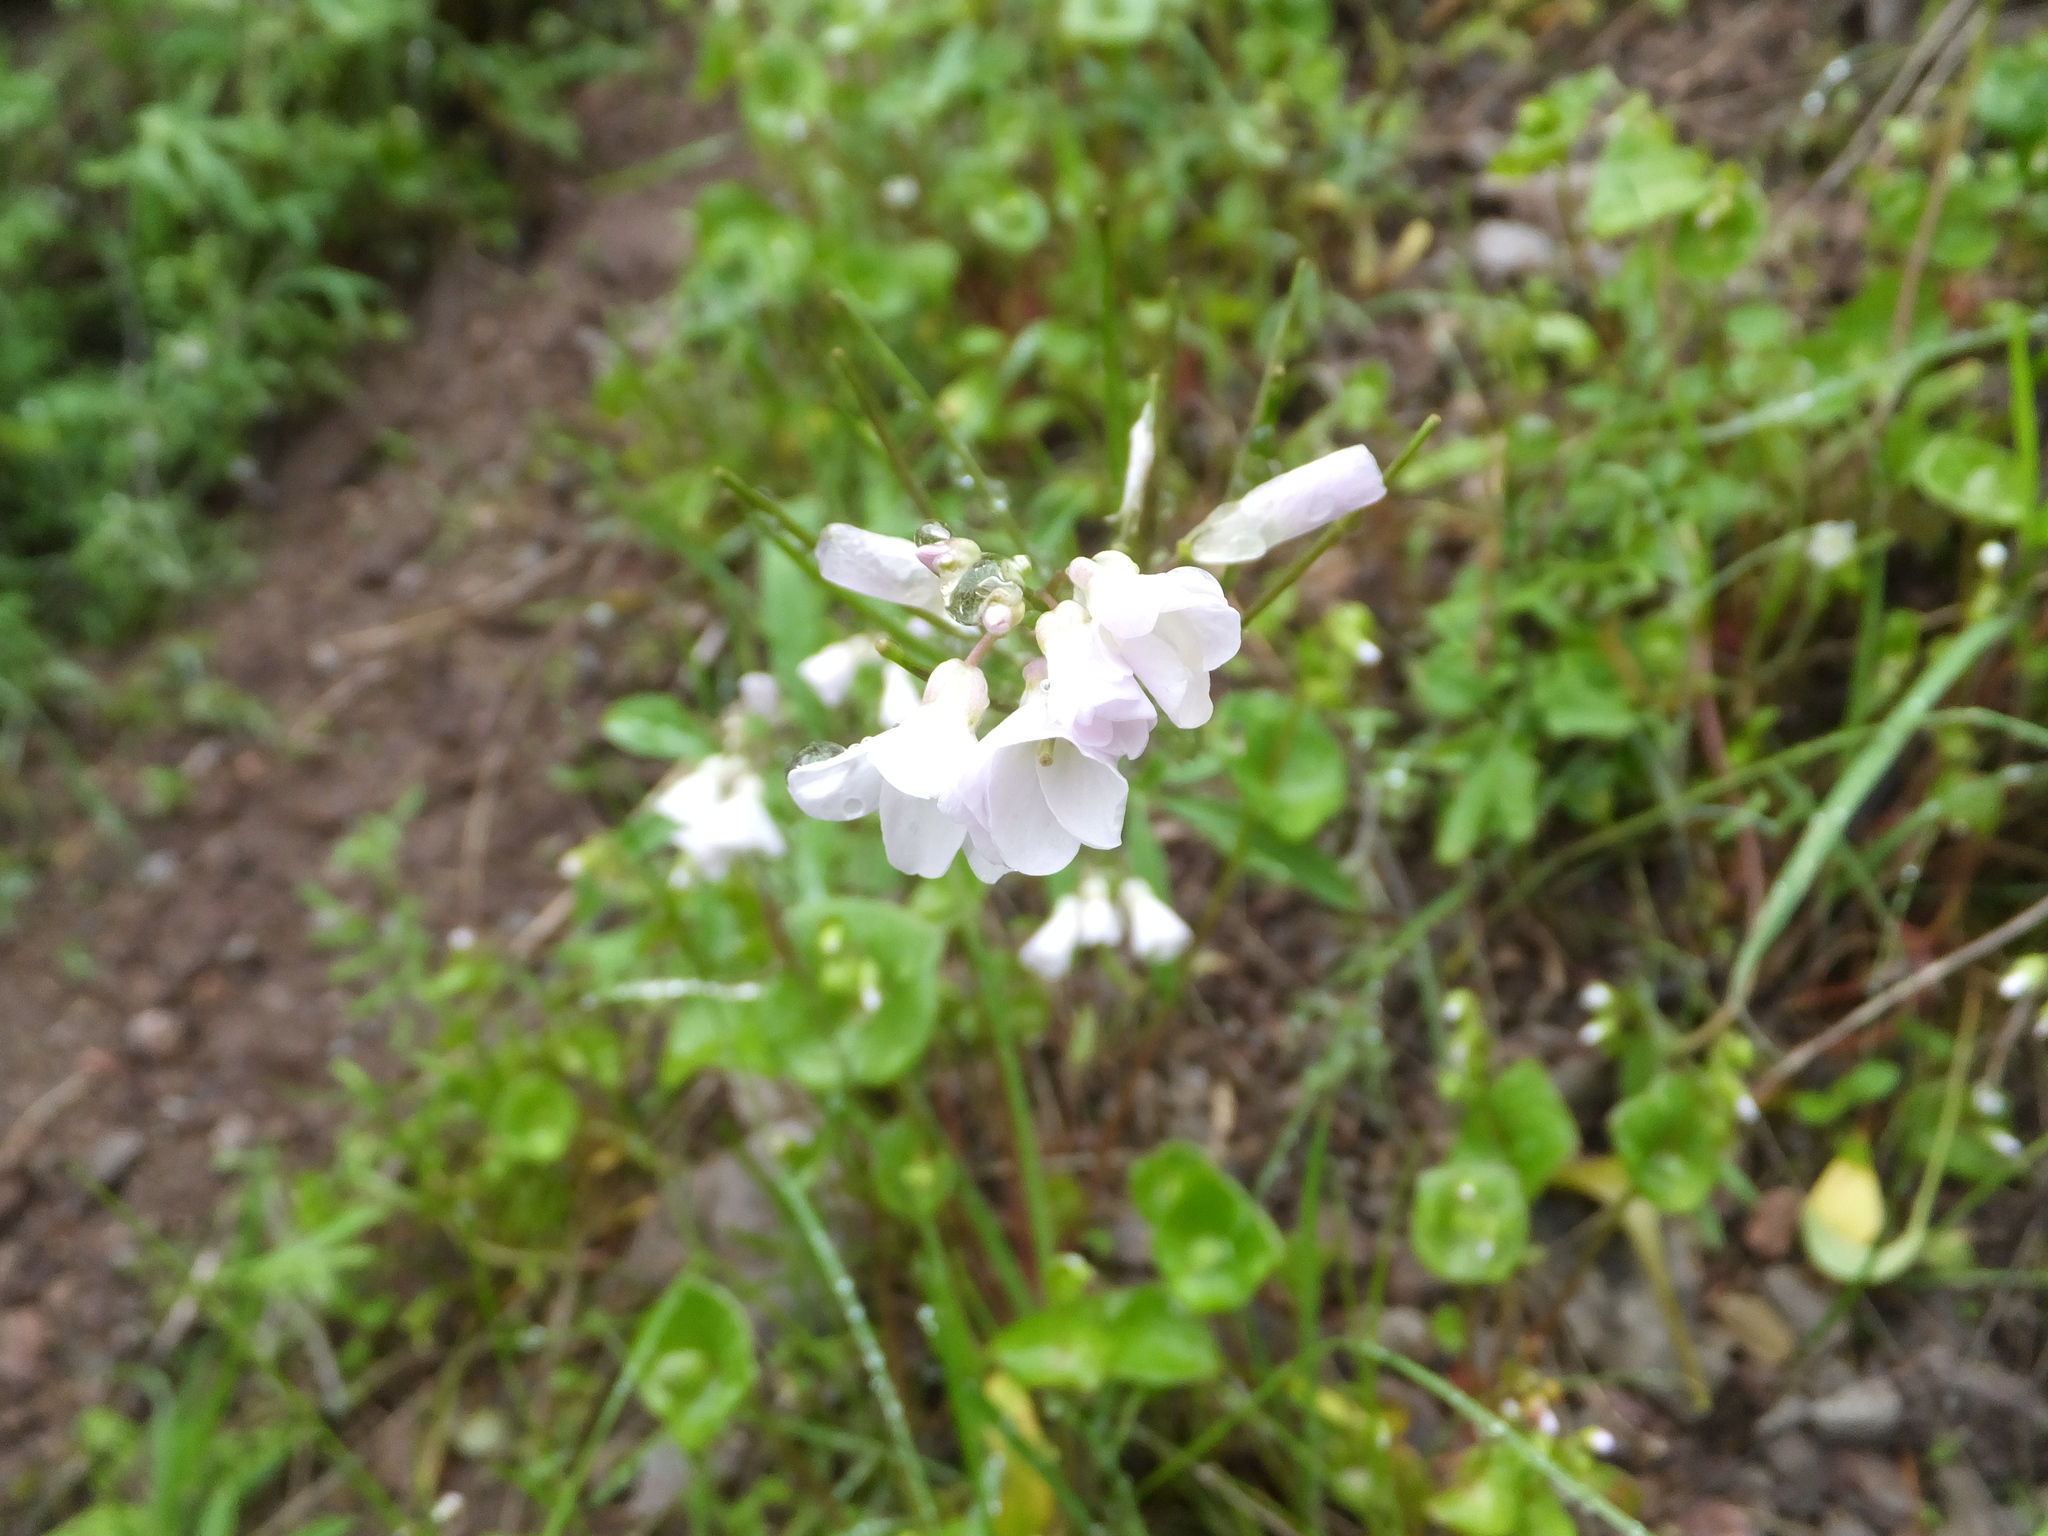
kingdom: Plantae
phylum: Tracheophyta
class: Magnoliopsida
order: Brassicales
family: Brassicaceae
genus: Cardamine
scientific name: Cardamine californica
